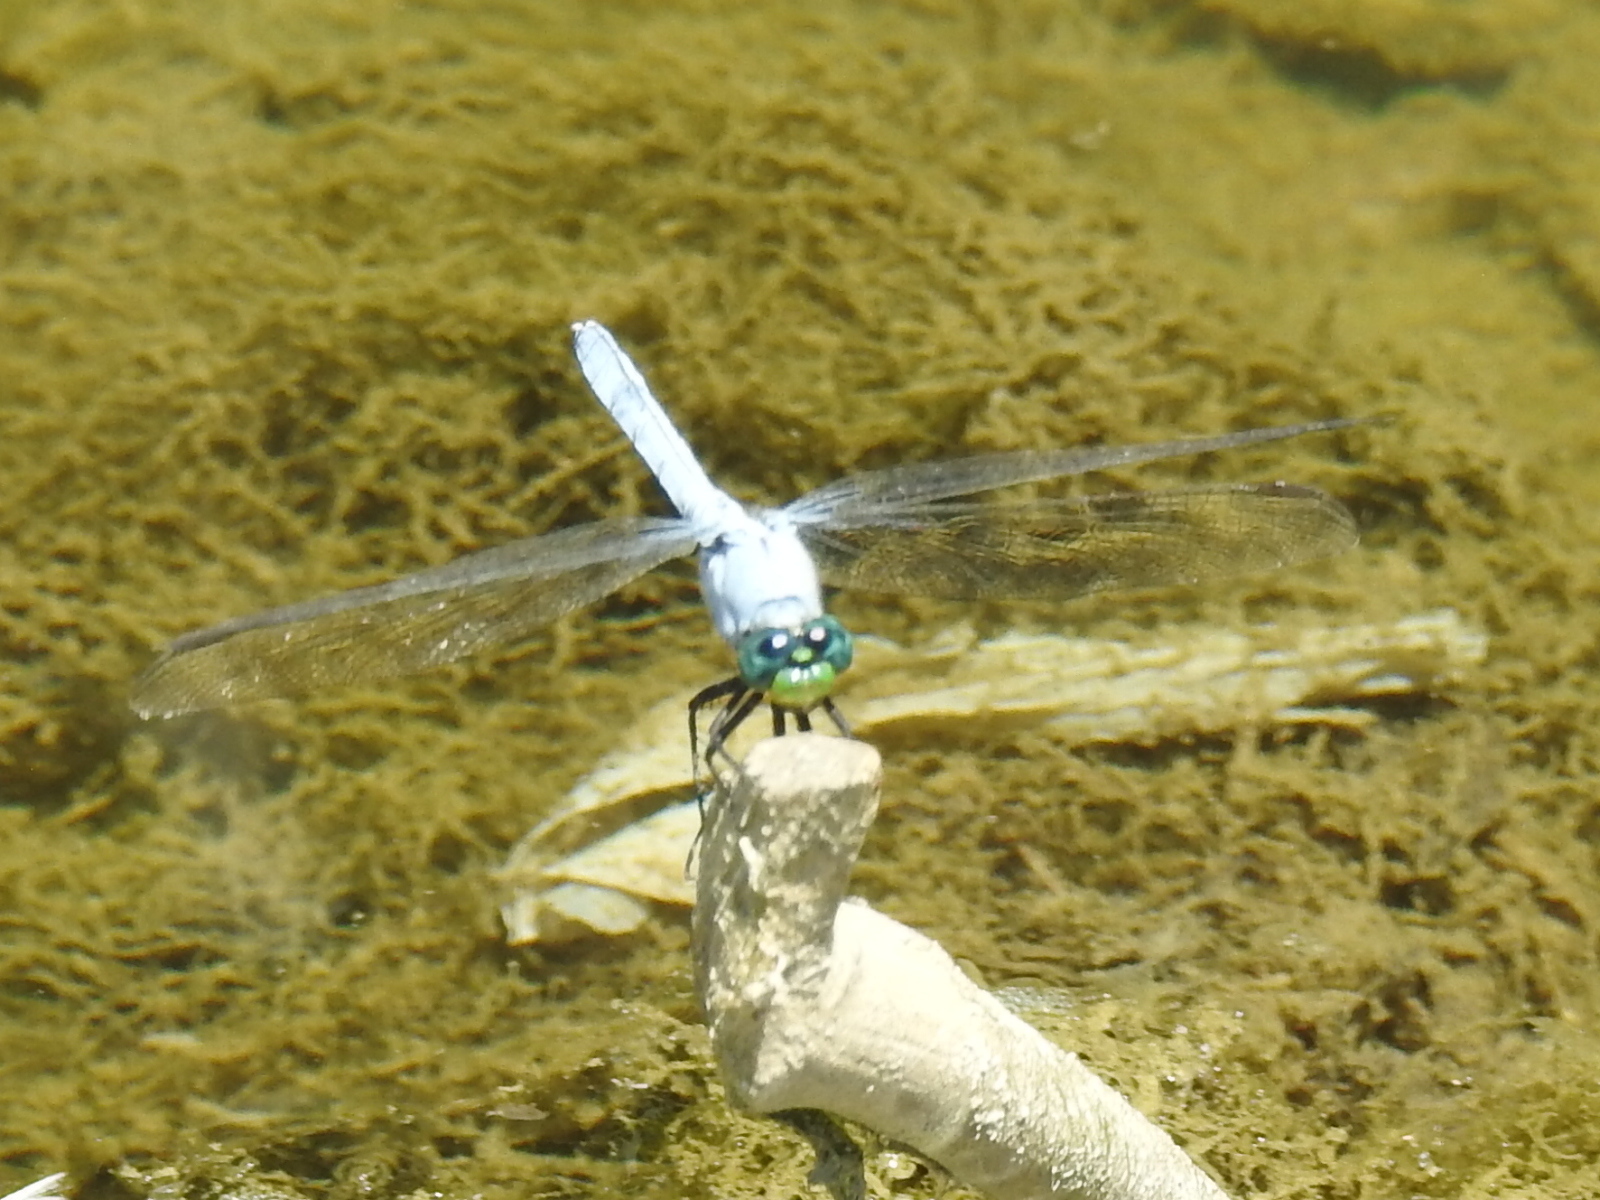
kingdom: Animalia
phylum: Arthropoda
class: Insecta
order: Odonata
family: Libellulidae
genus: Erythemis
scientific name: Erythemis simplicicollis
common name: Eastern pondhawk
